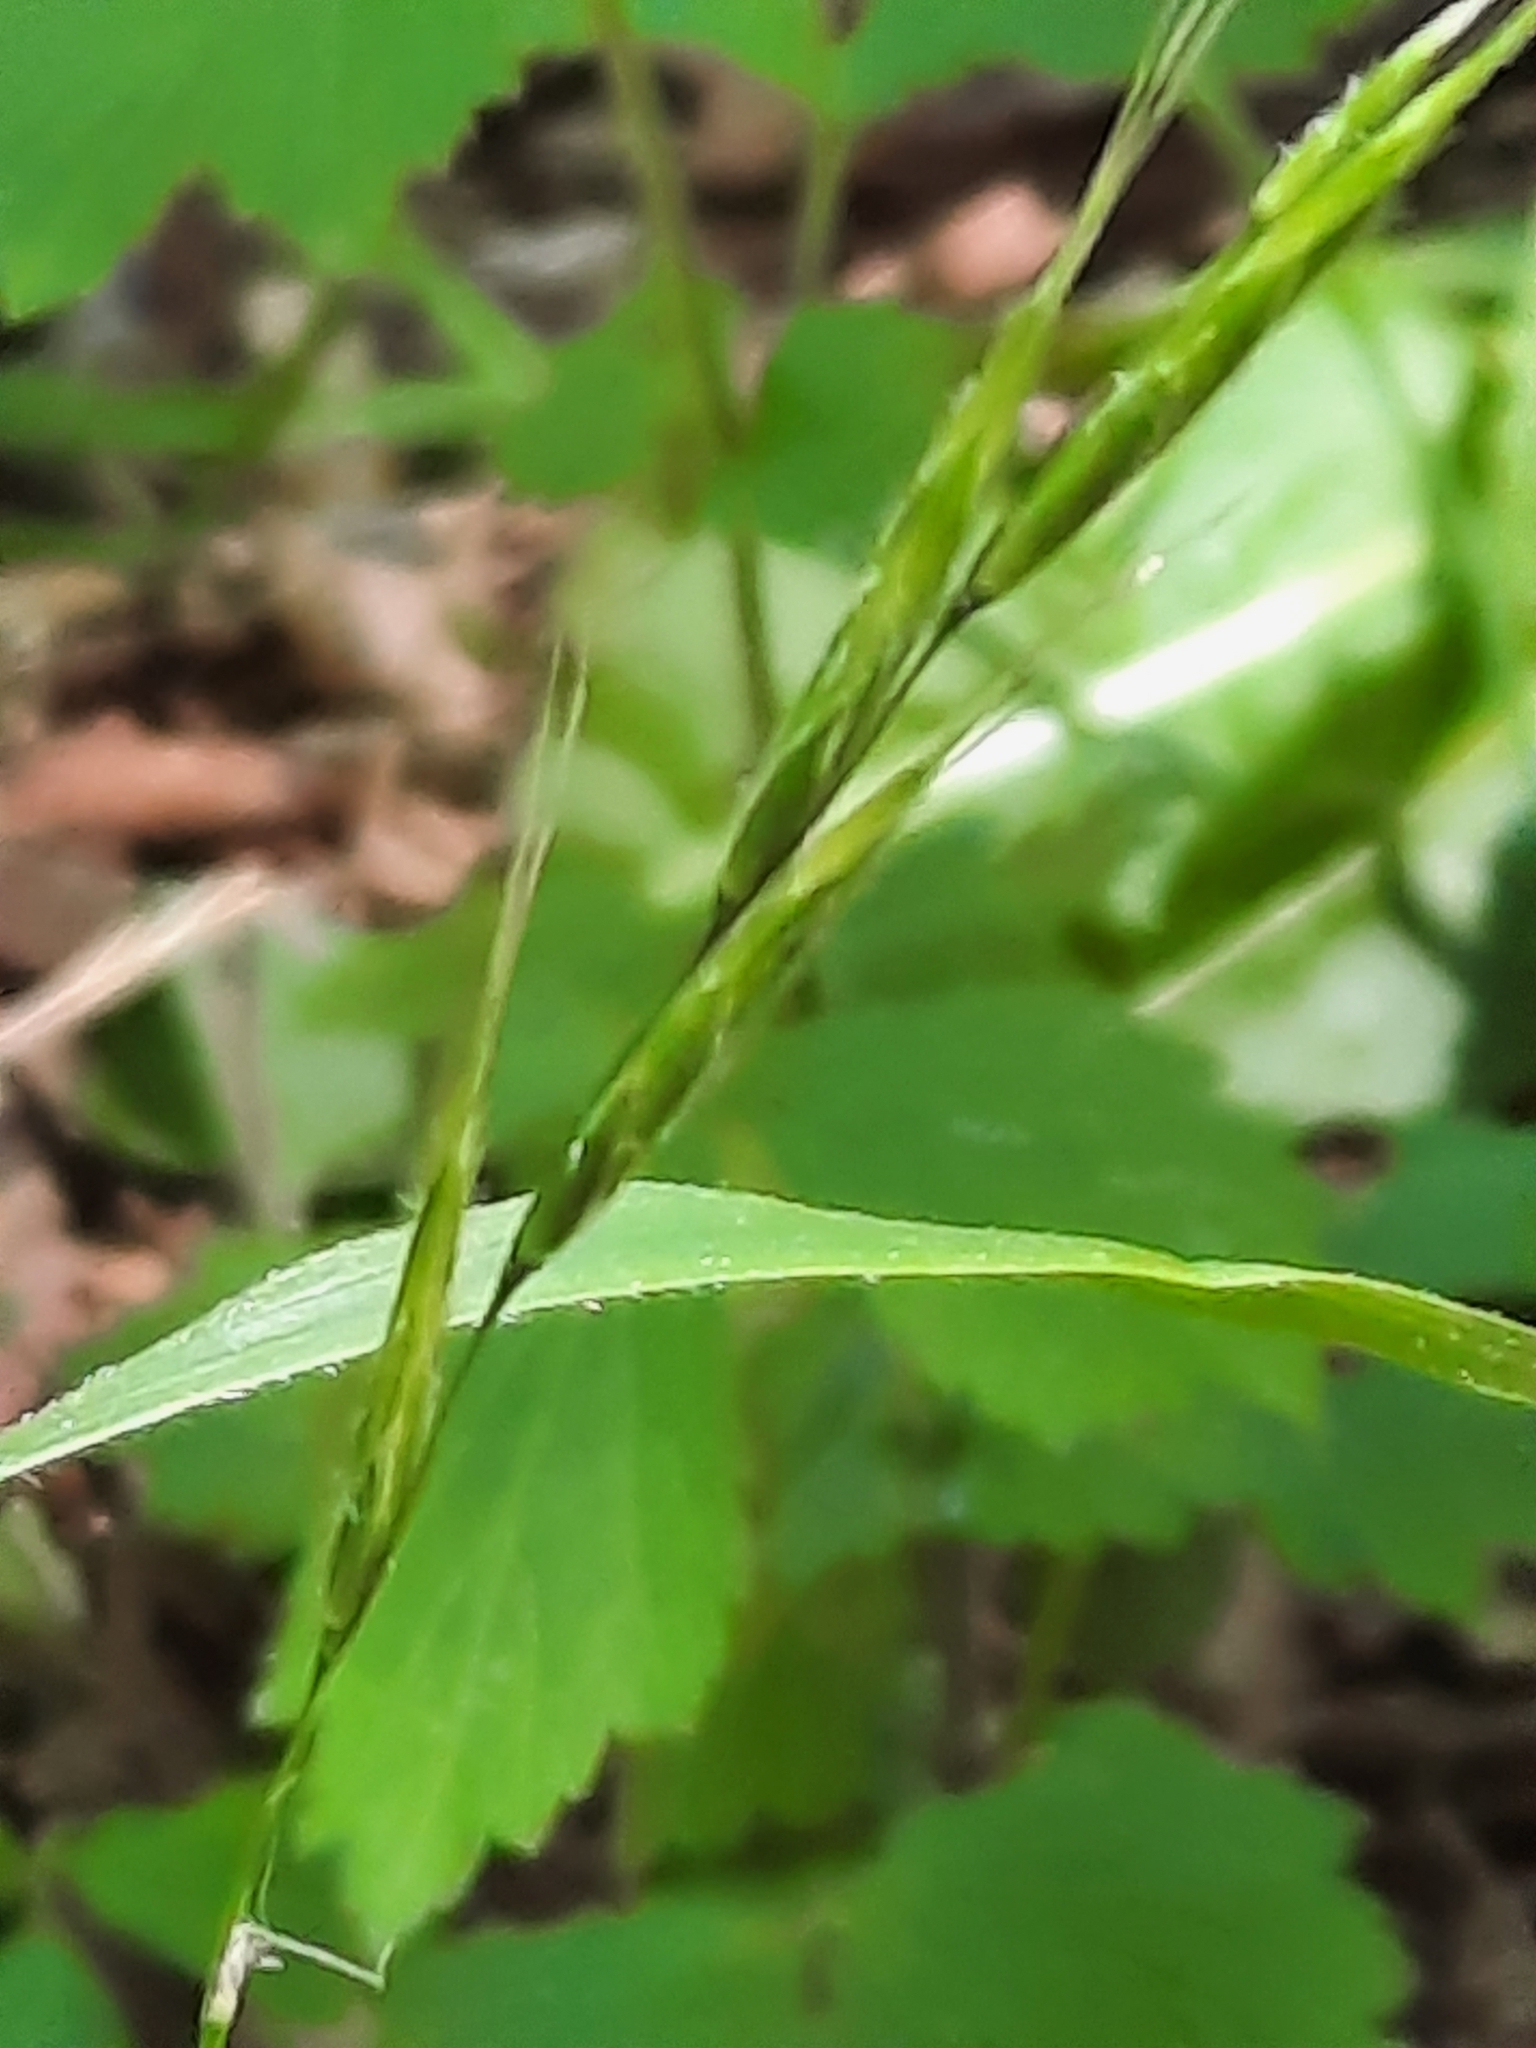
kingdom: Plantae
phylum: Tracheophyta
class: Liliopsida
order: Poales
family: Poaceae
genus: Brachypodium
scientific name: Brachypodium sylvaticum
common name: False-brome
